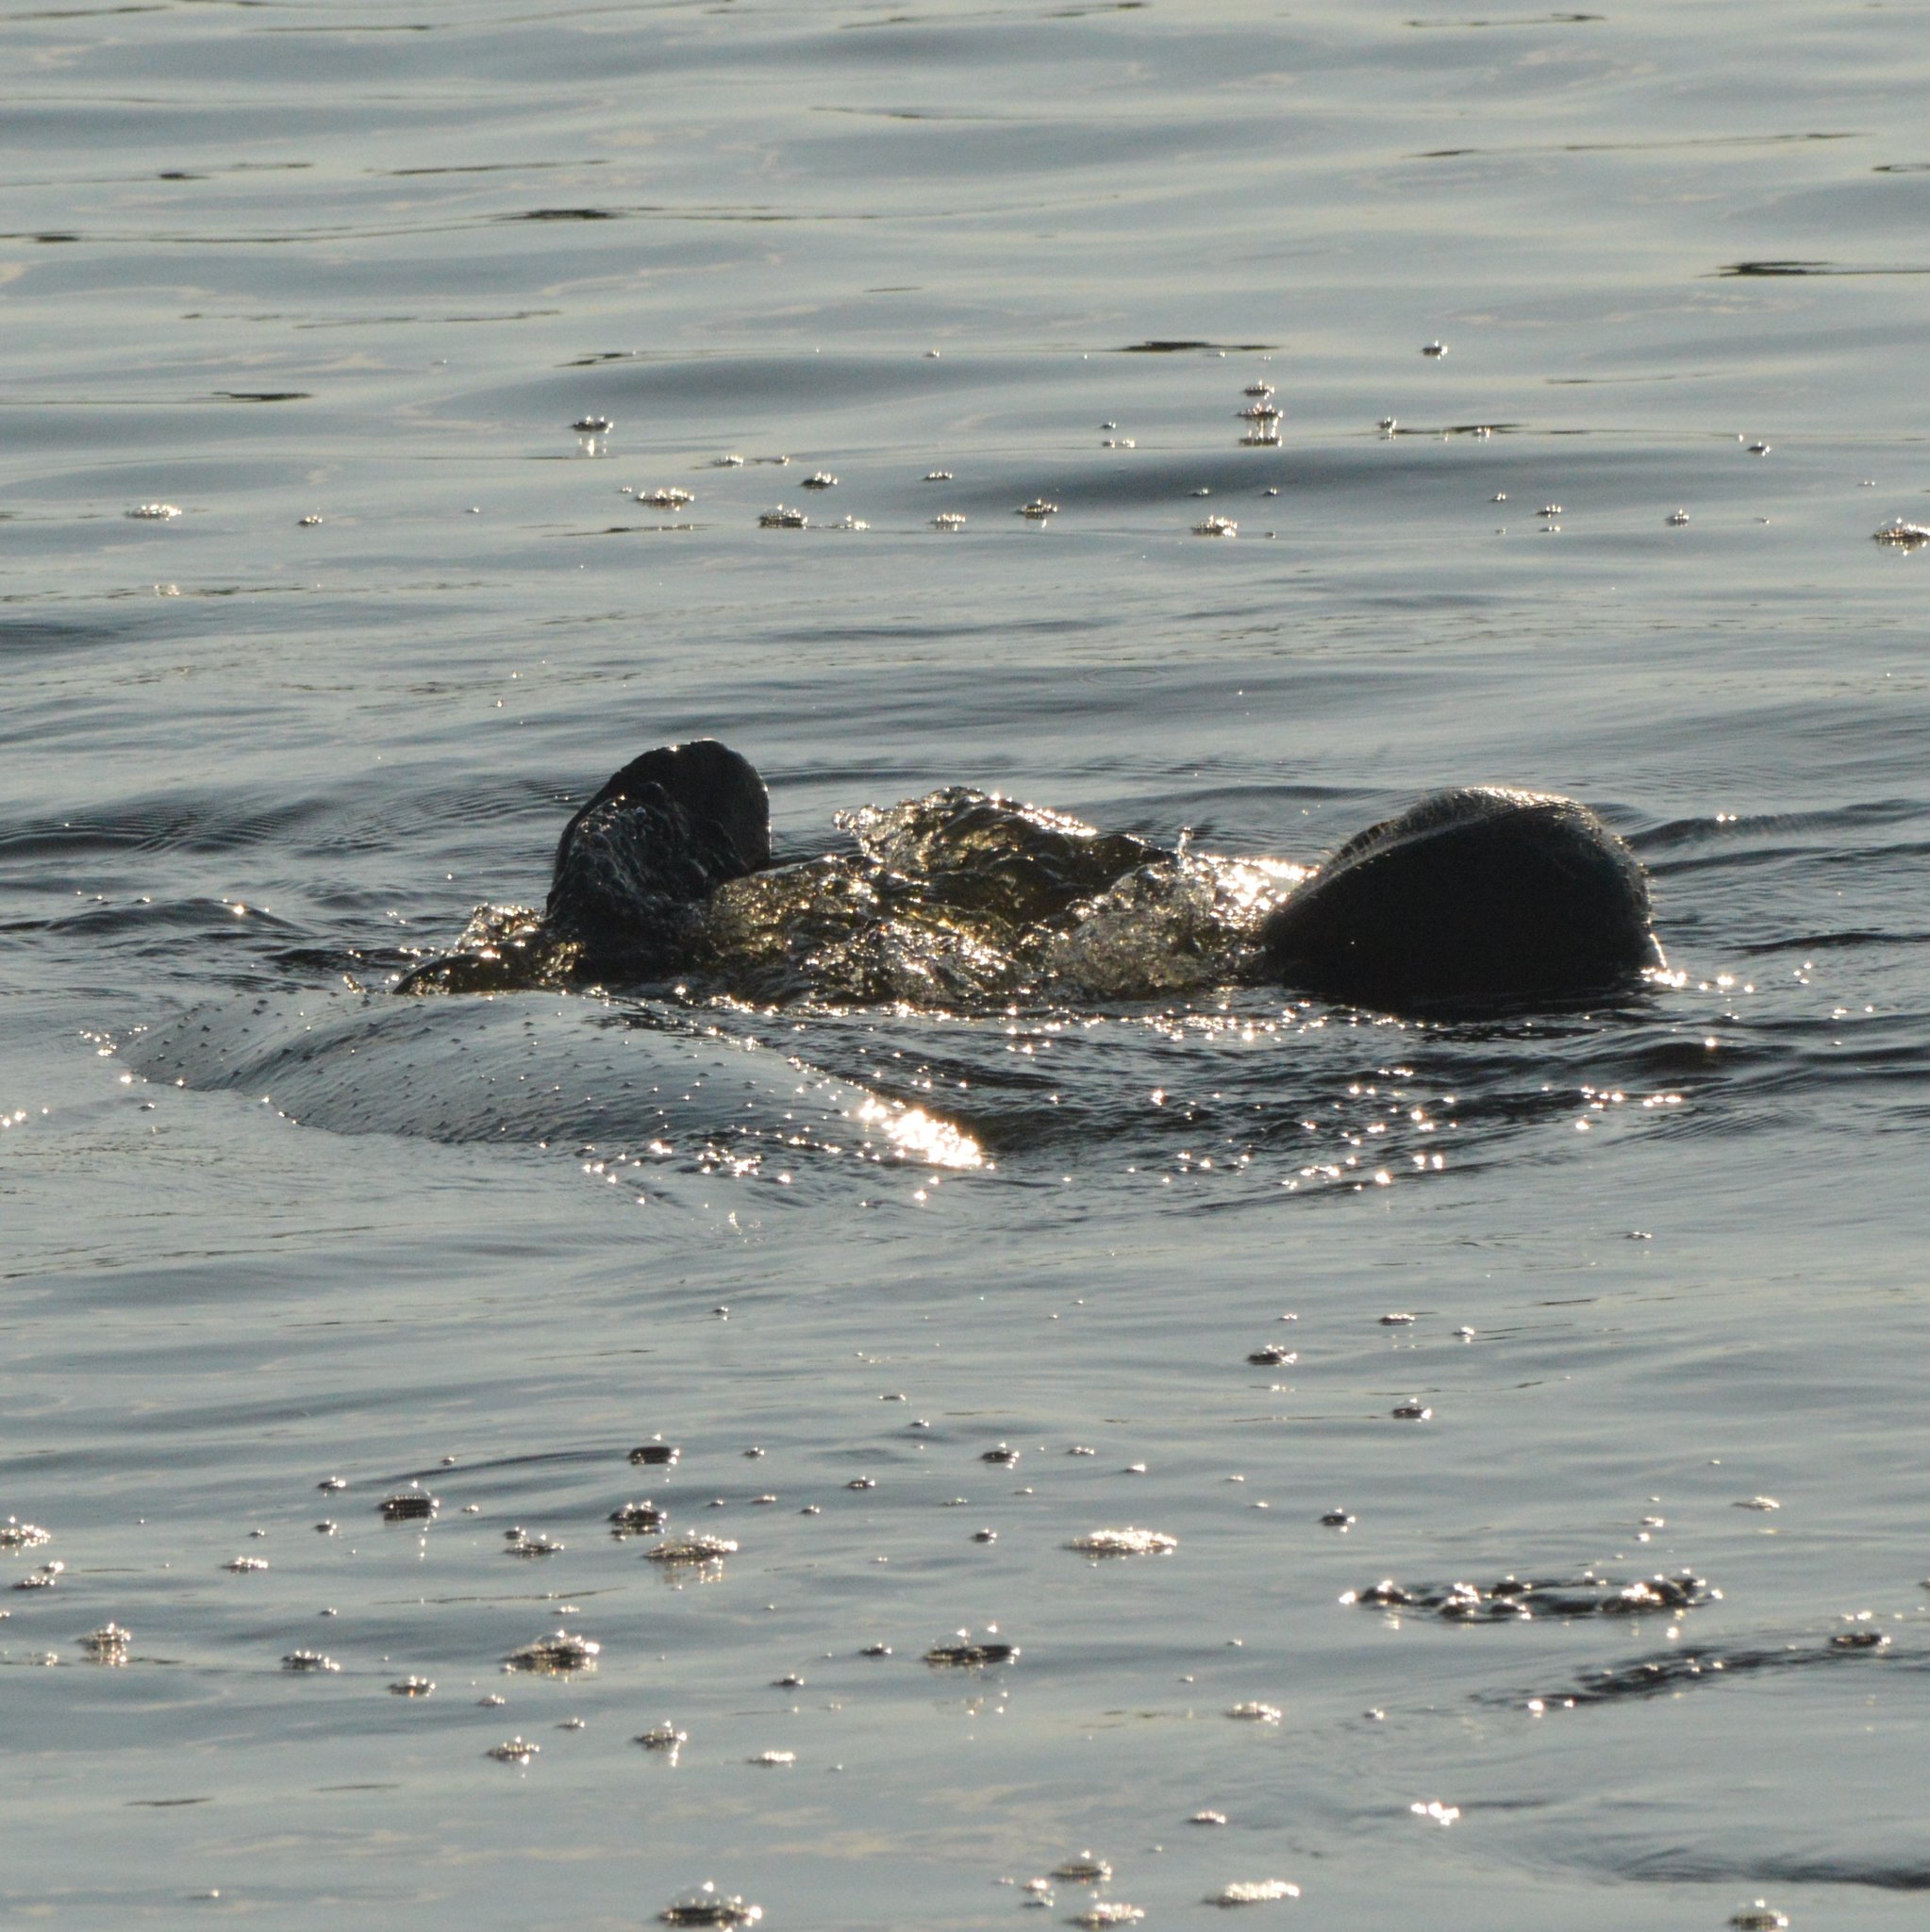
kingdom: Animalia
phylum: Chordata
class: Mammalia
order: Sirenia
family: Trichechidae
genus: Trichechus
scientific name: Trichechus manatus
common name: West indian manatee
